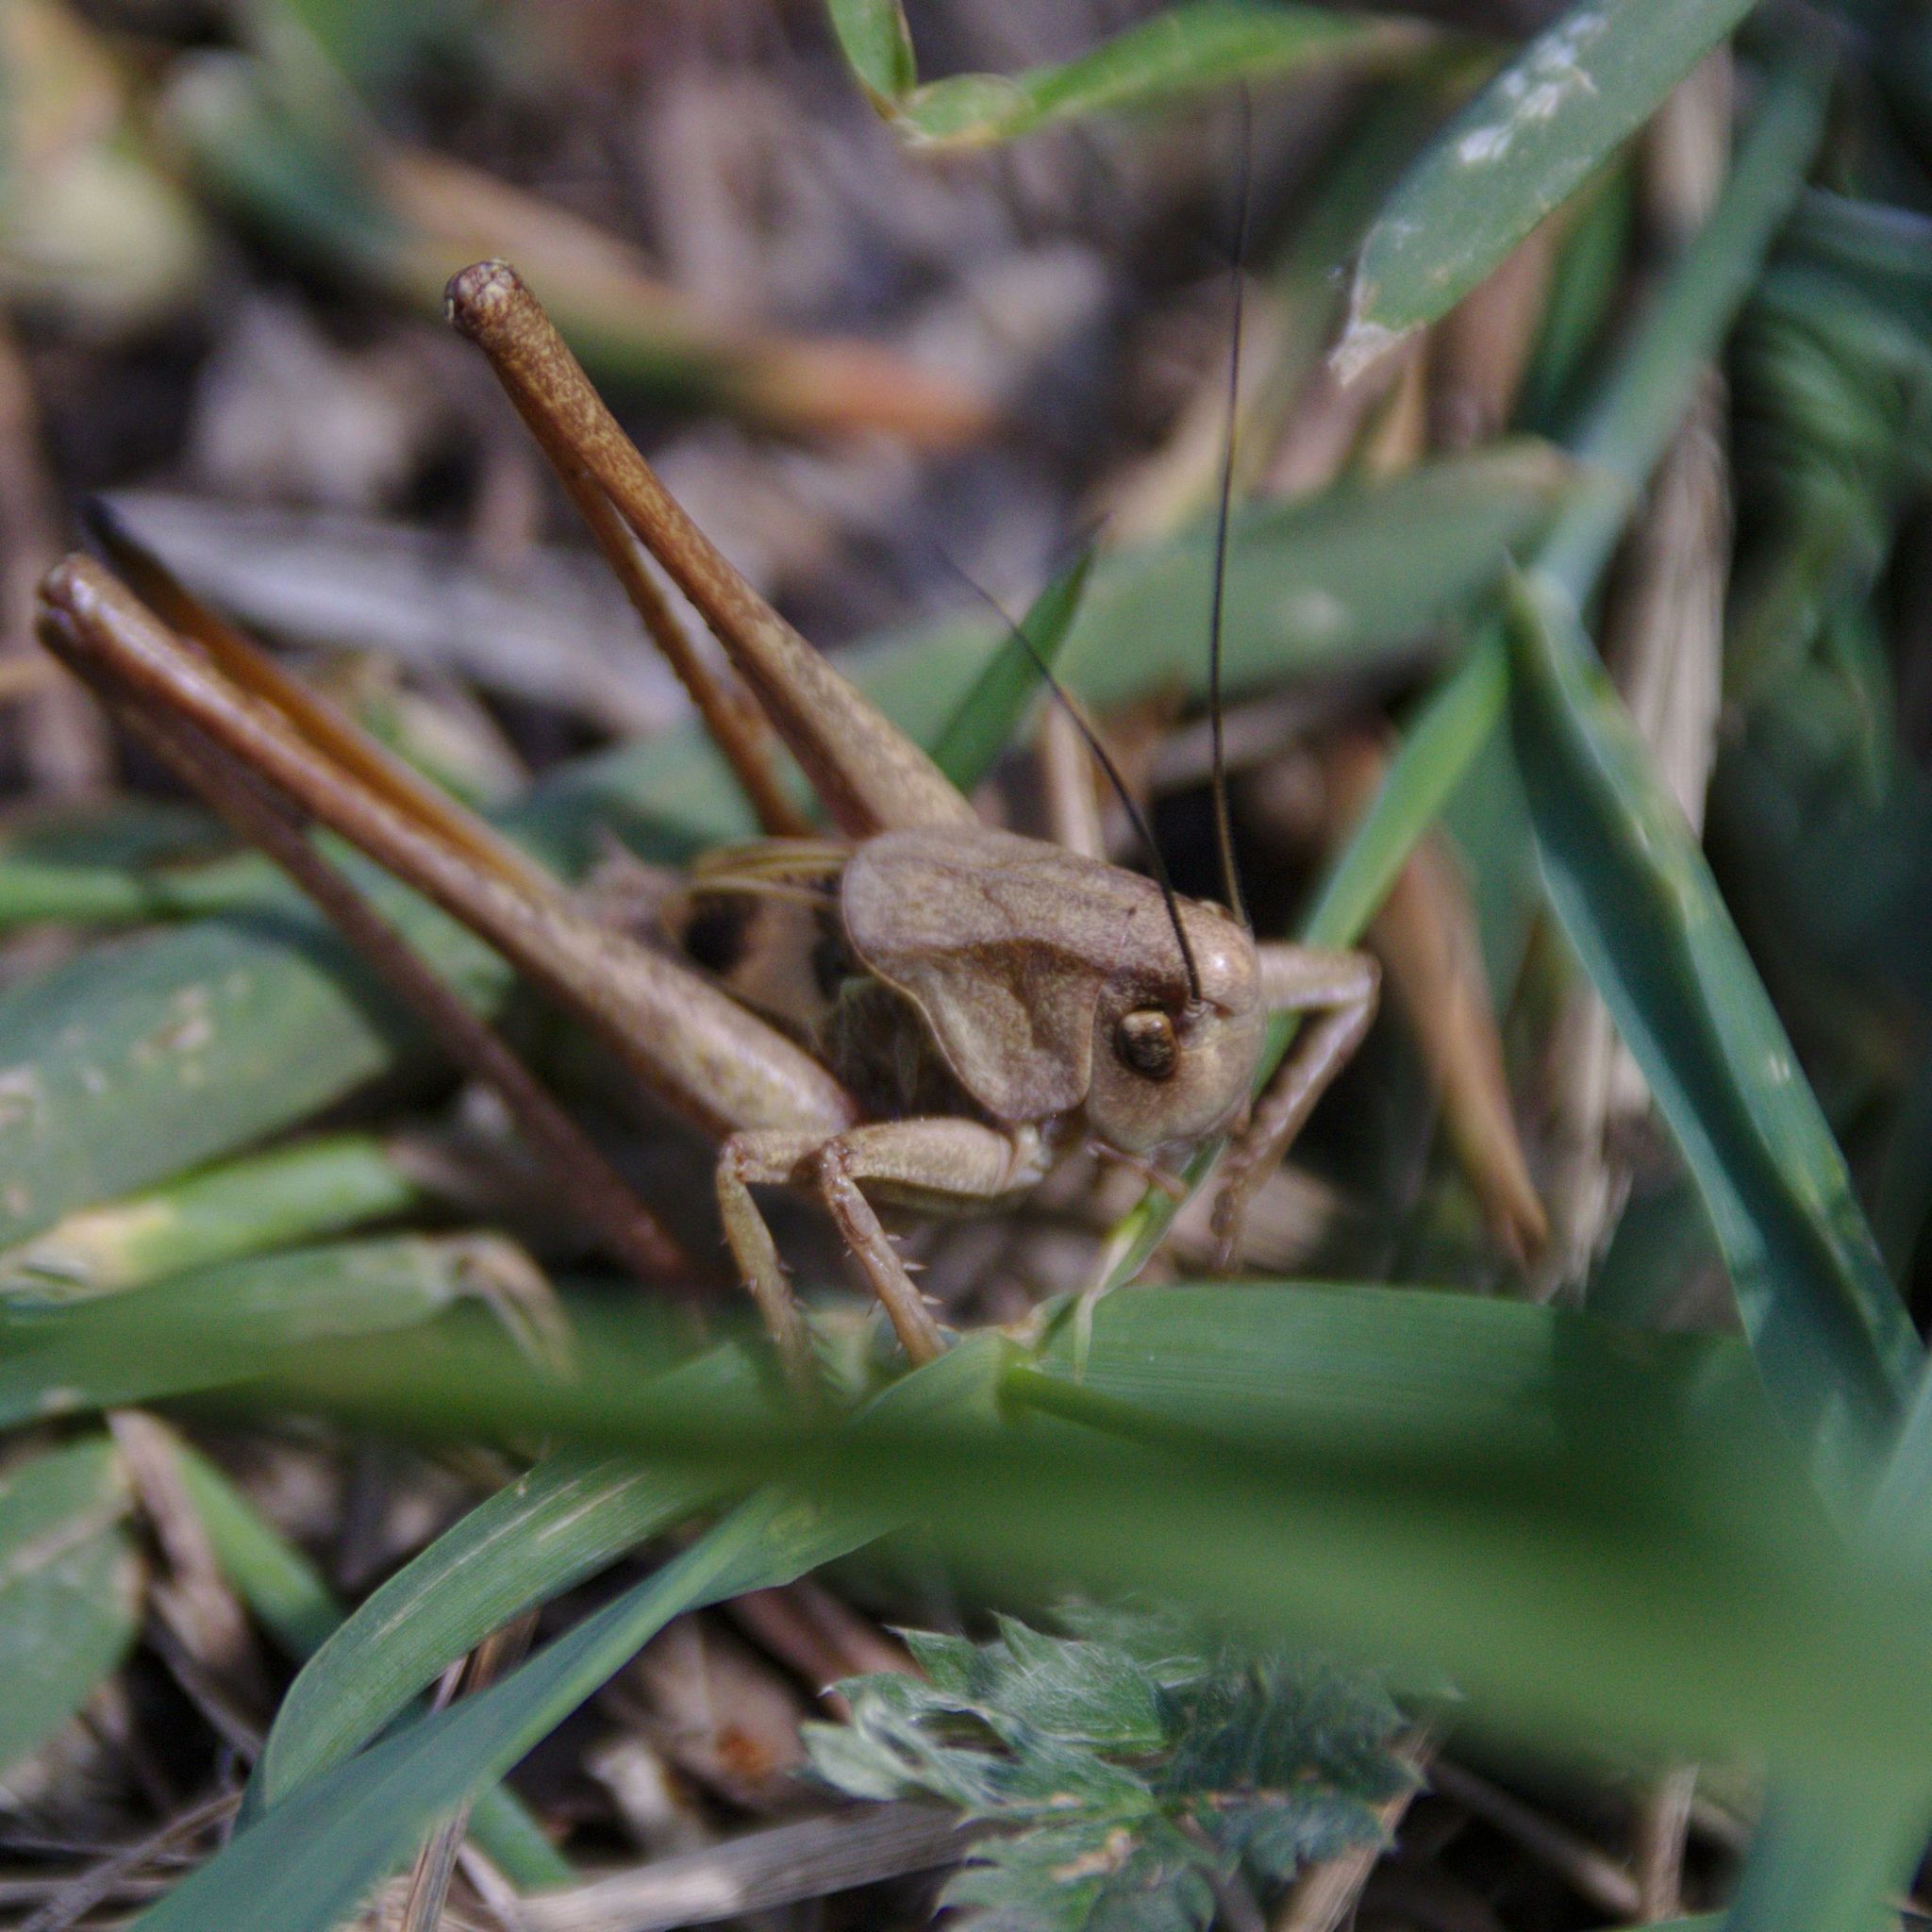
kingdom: Animalia
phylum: Arthropoda
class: Insecta
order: Orthoptera
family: Tettigoniidae
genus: Decticus
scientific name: Decticus verrucivorus
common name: Wart-biter
